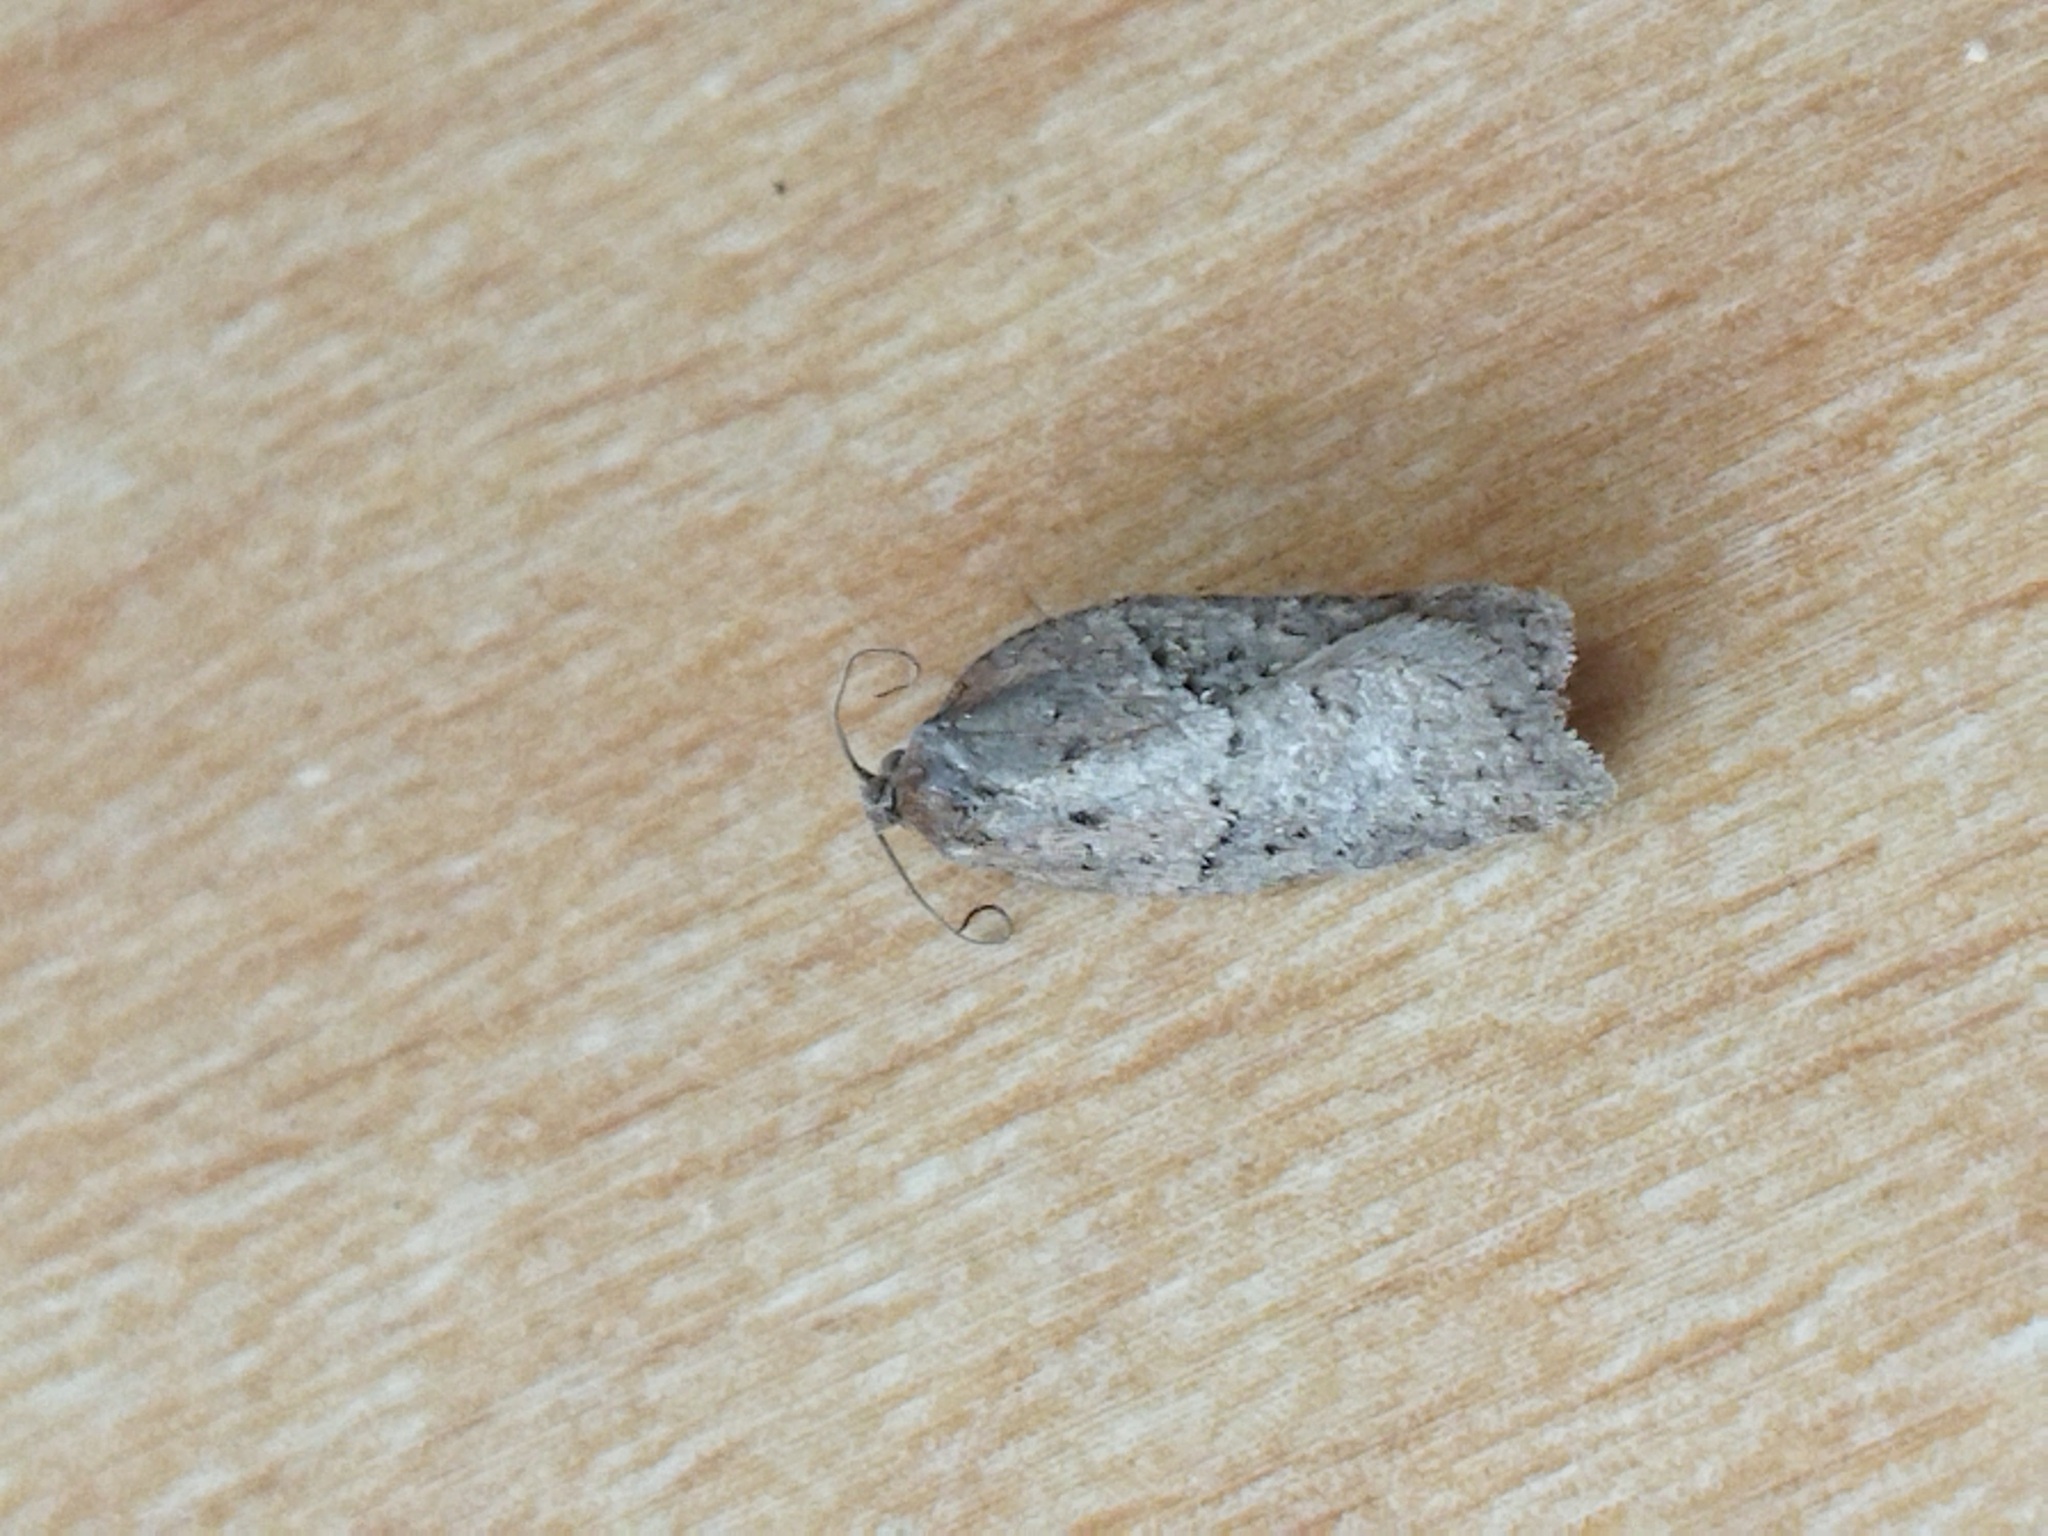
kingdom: Animalia
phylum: Arthropoda
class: Insecta
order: Lepidoptera
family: Tortricidae
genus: Acleris
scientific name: Acleris
